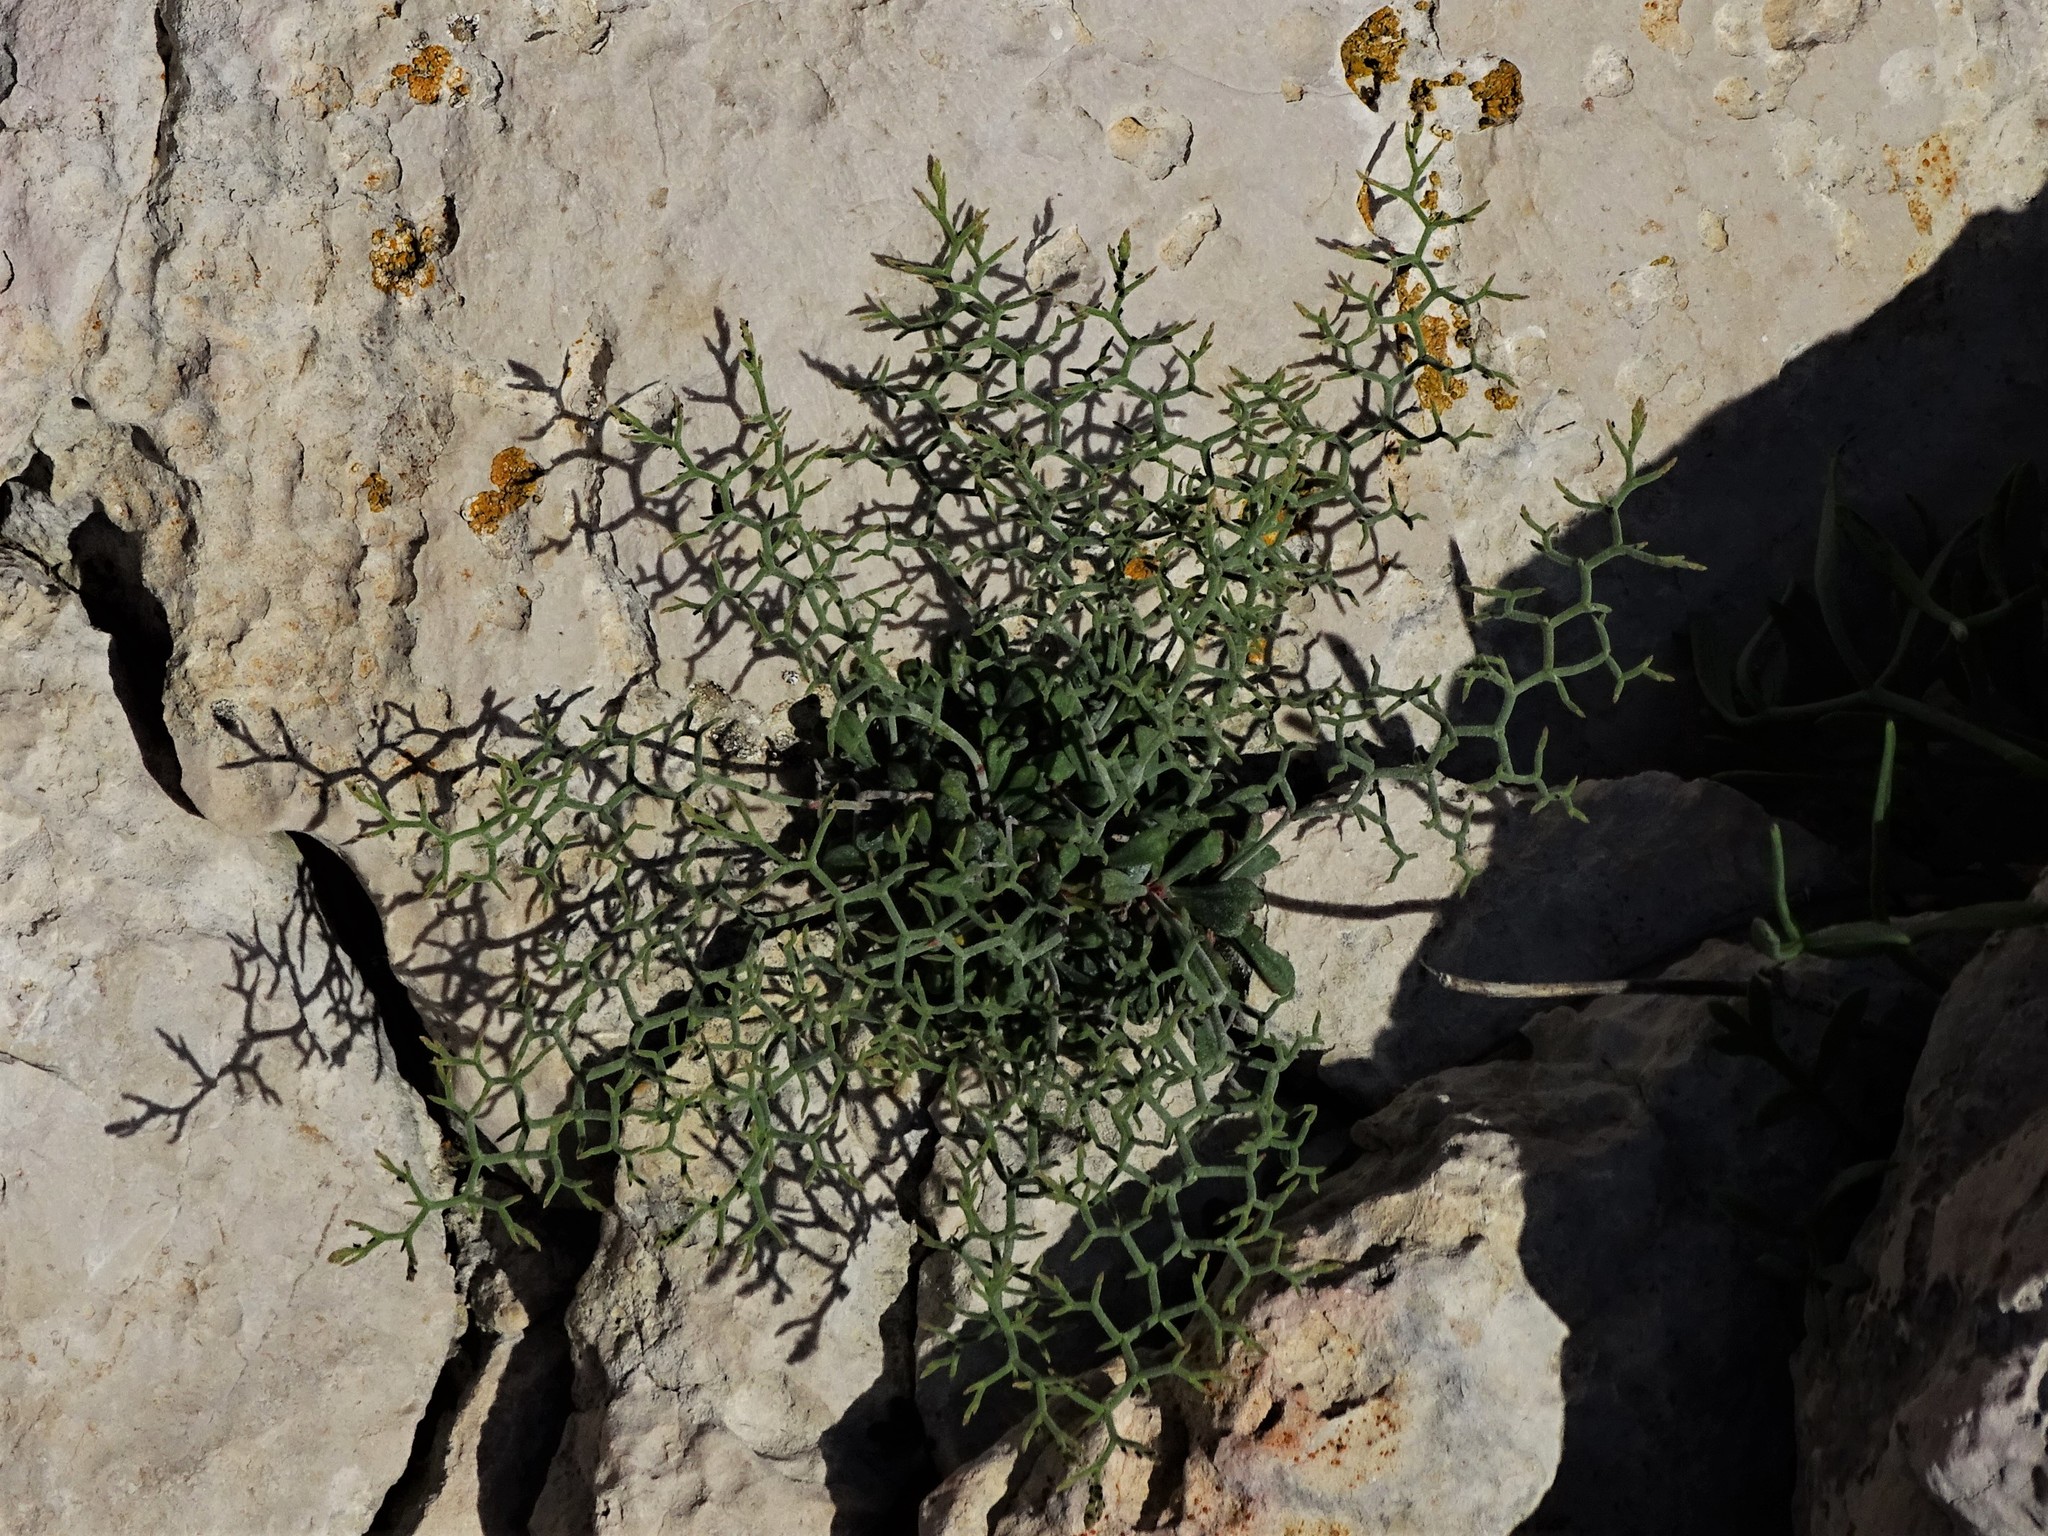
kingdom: Plantae
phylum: Tracheophyta
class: Magnoliopsida
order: Caryophyllales
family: Plumbaginaceae
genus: Limonium
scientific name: Limonium cancellatum
